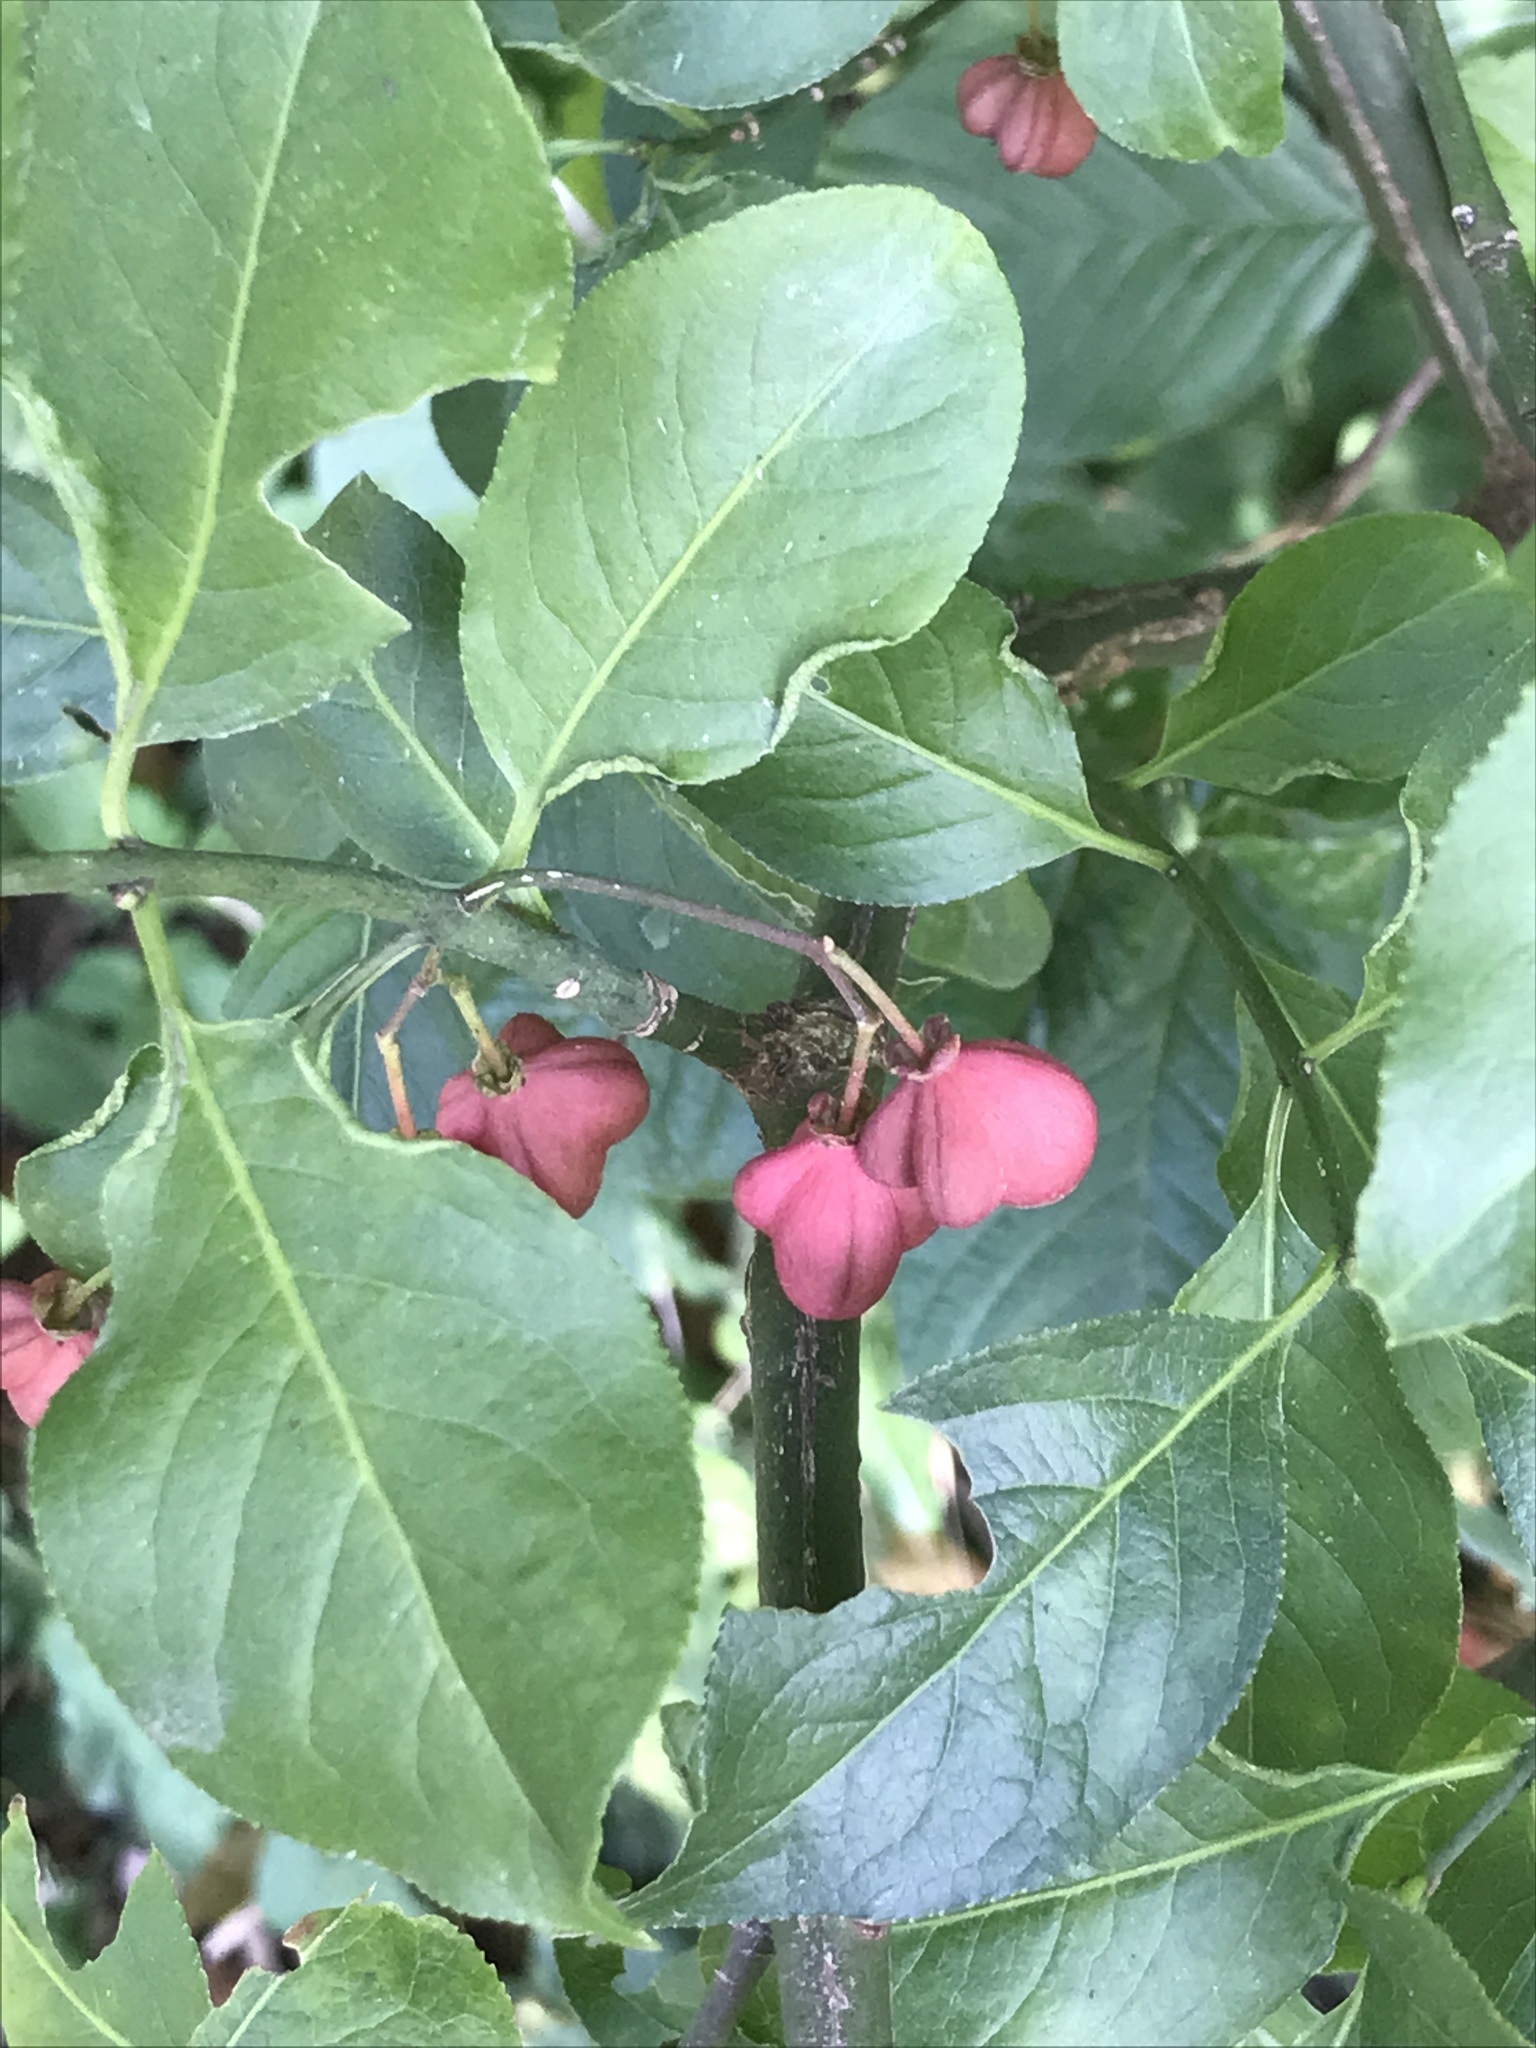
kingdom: Plantae
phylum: Tracheophyta
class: Magnoliopsida
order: Celastrales
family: Celastraceae
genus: Euonymus
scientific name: Euonymus europaeus
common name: Spindle
